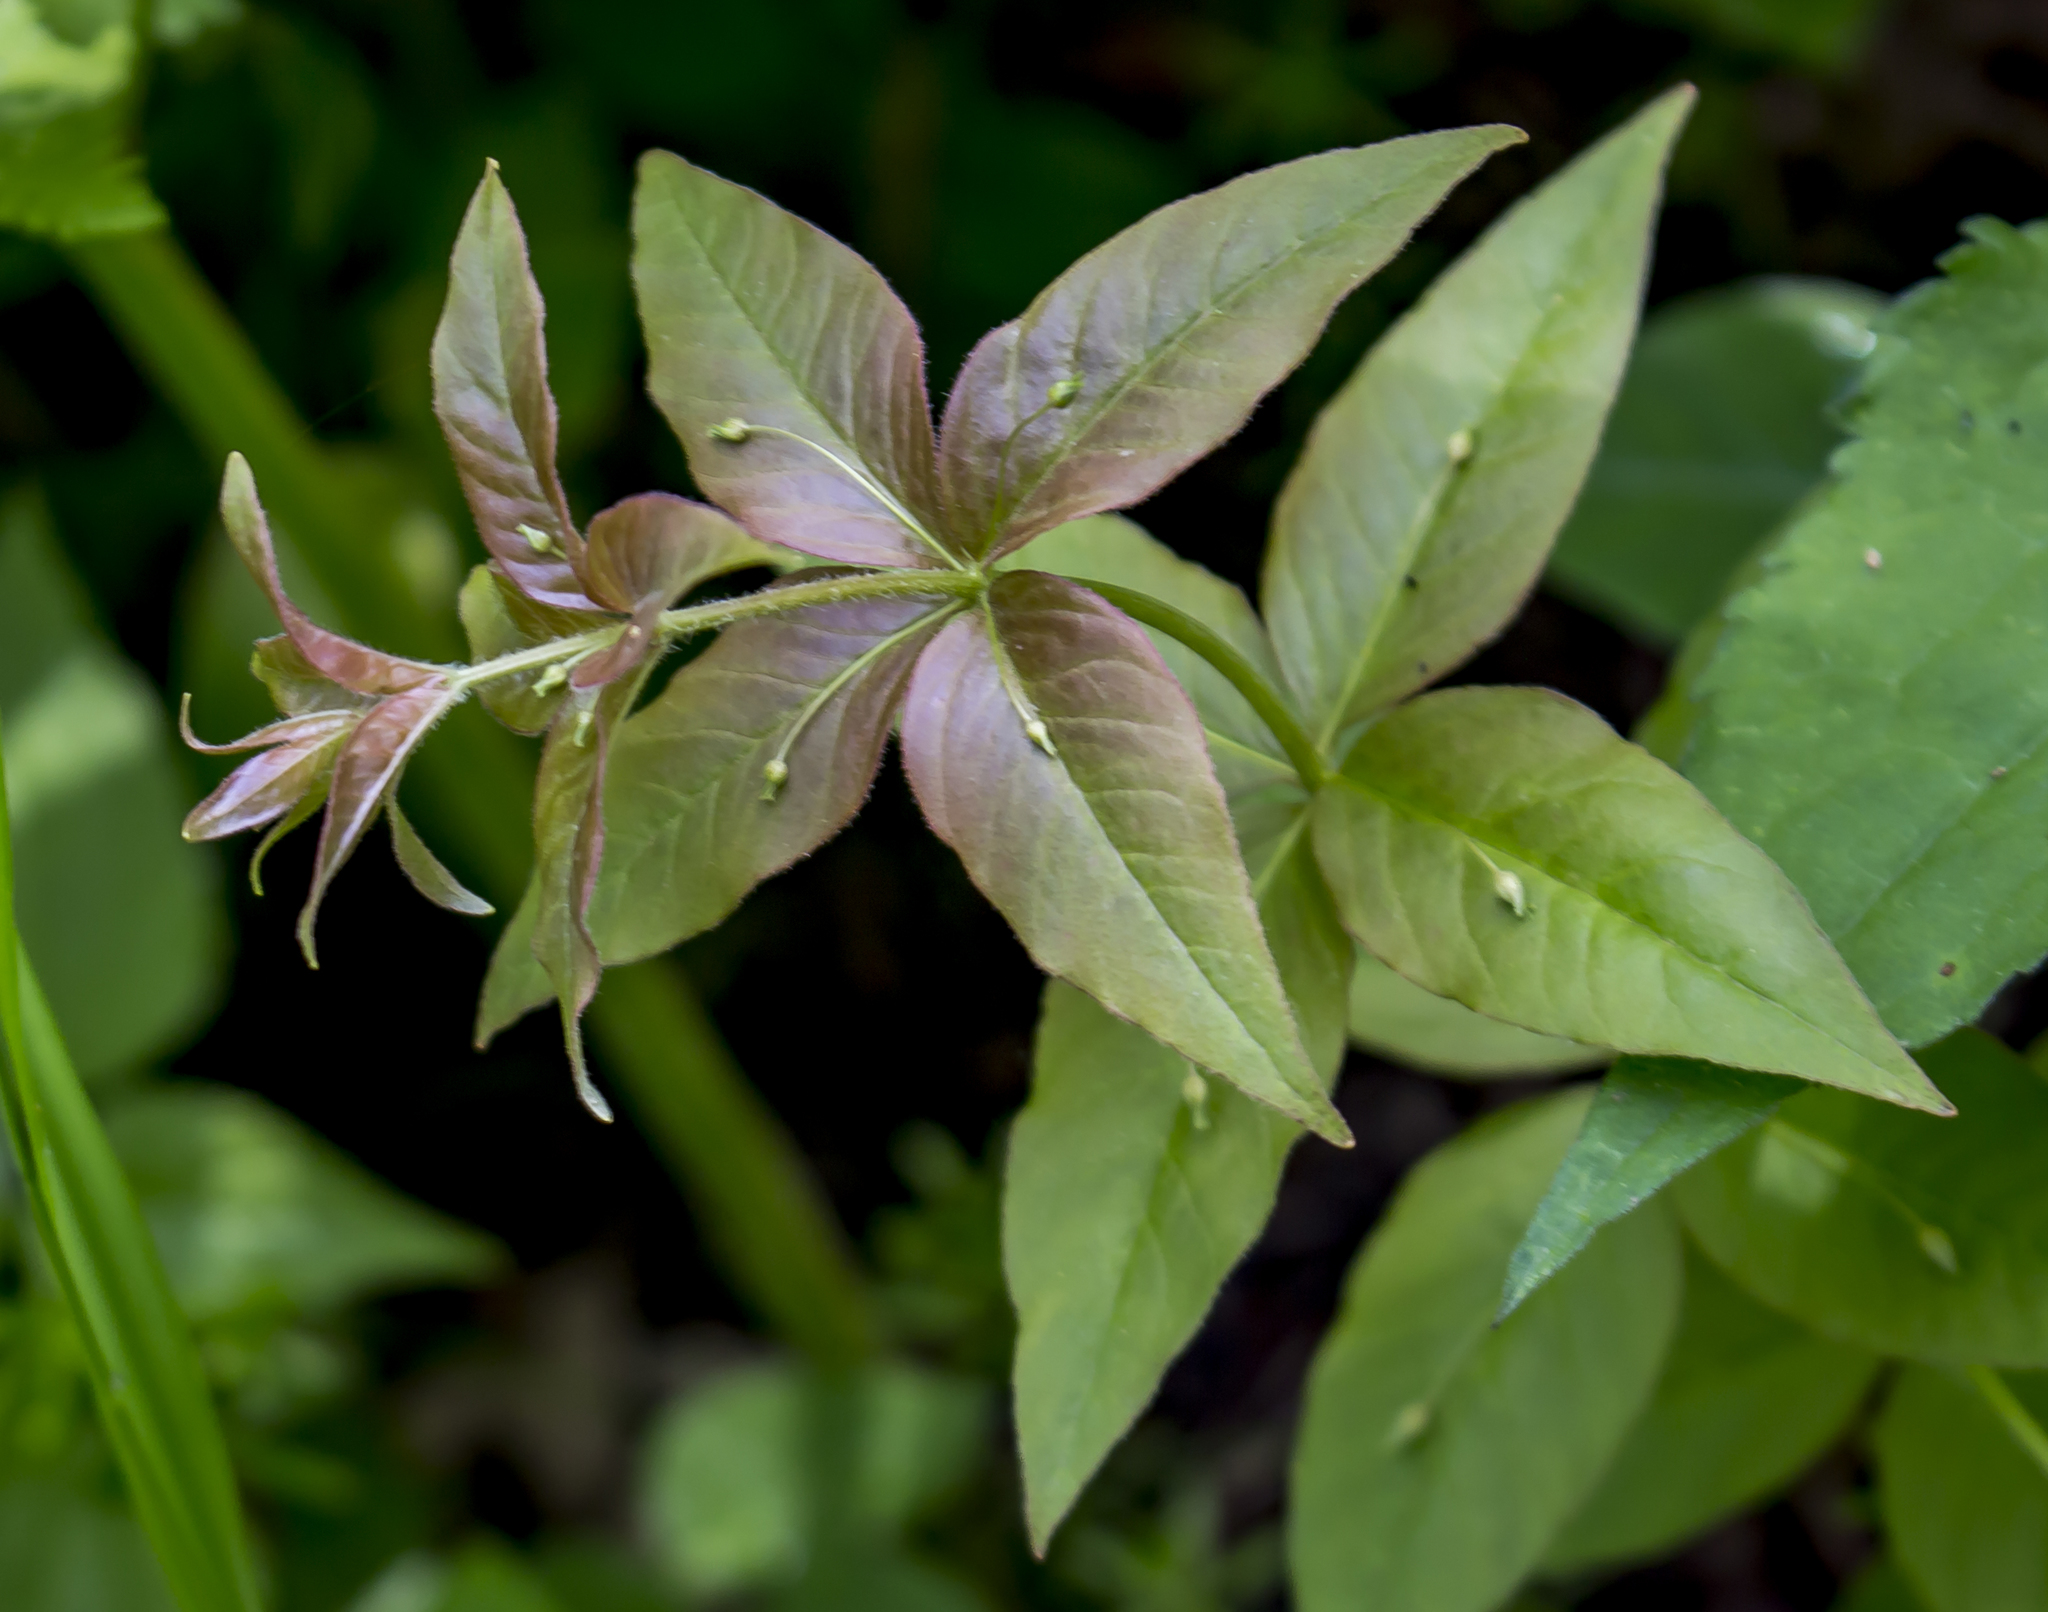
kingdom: Plantae
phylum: Tracheophyta
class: Magnoliopsida
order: Ericales
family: Primulaceae
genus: Lysimachia
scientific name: Lysimachia quadrifolia
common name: Whorled loosestrife
